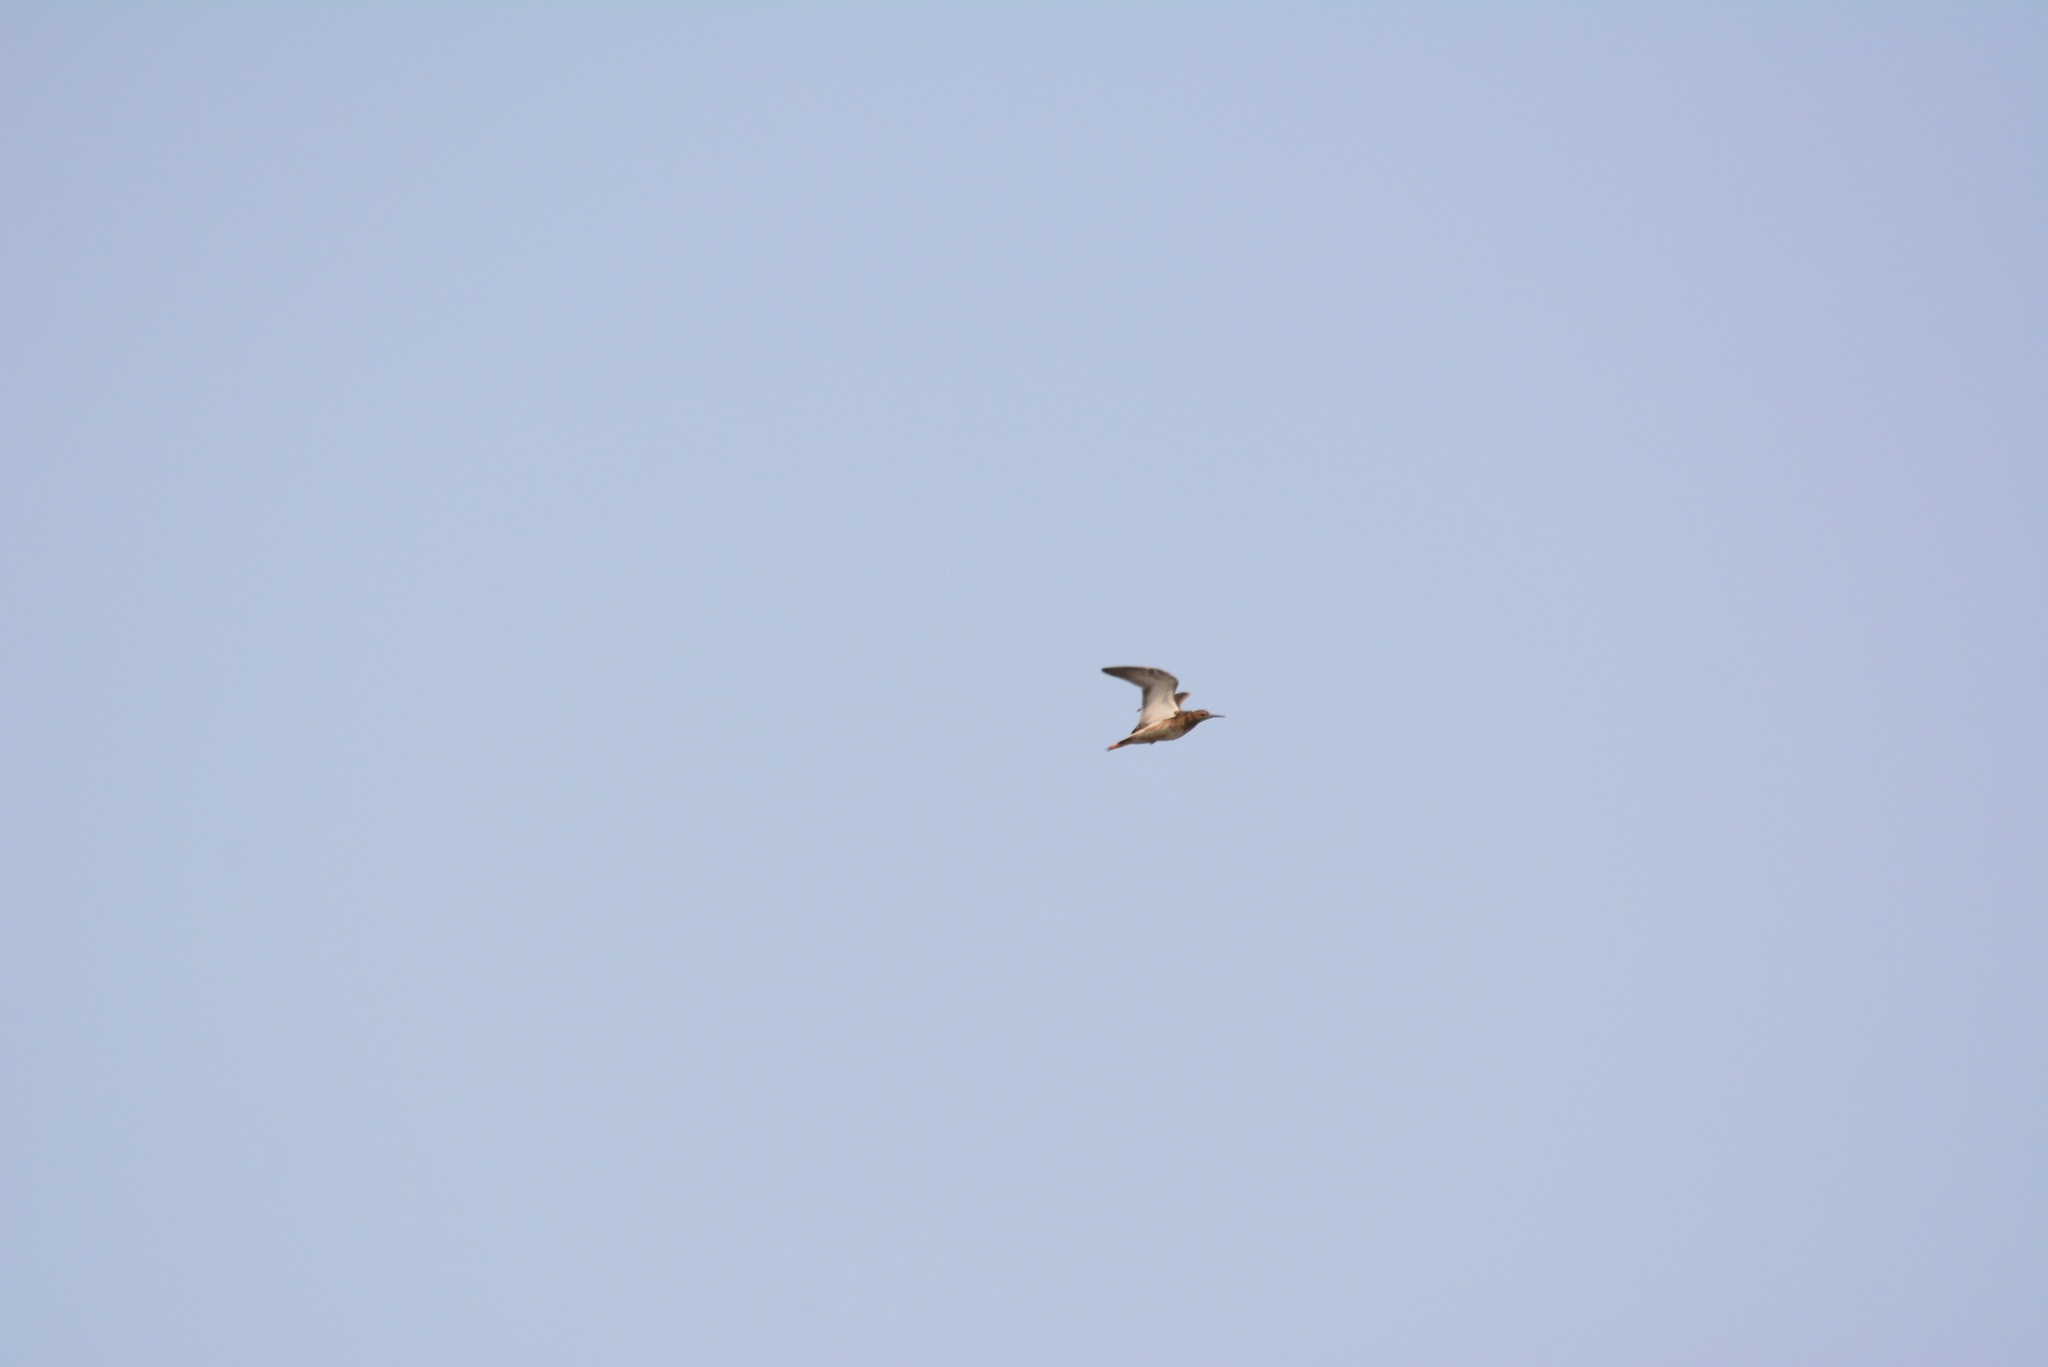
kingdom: Animalia
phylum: Chordata
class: Aves
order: Charadriiformes
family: Scolopacidae
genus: Calidris
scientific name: Calidris pugnax
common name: Ruff
